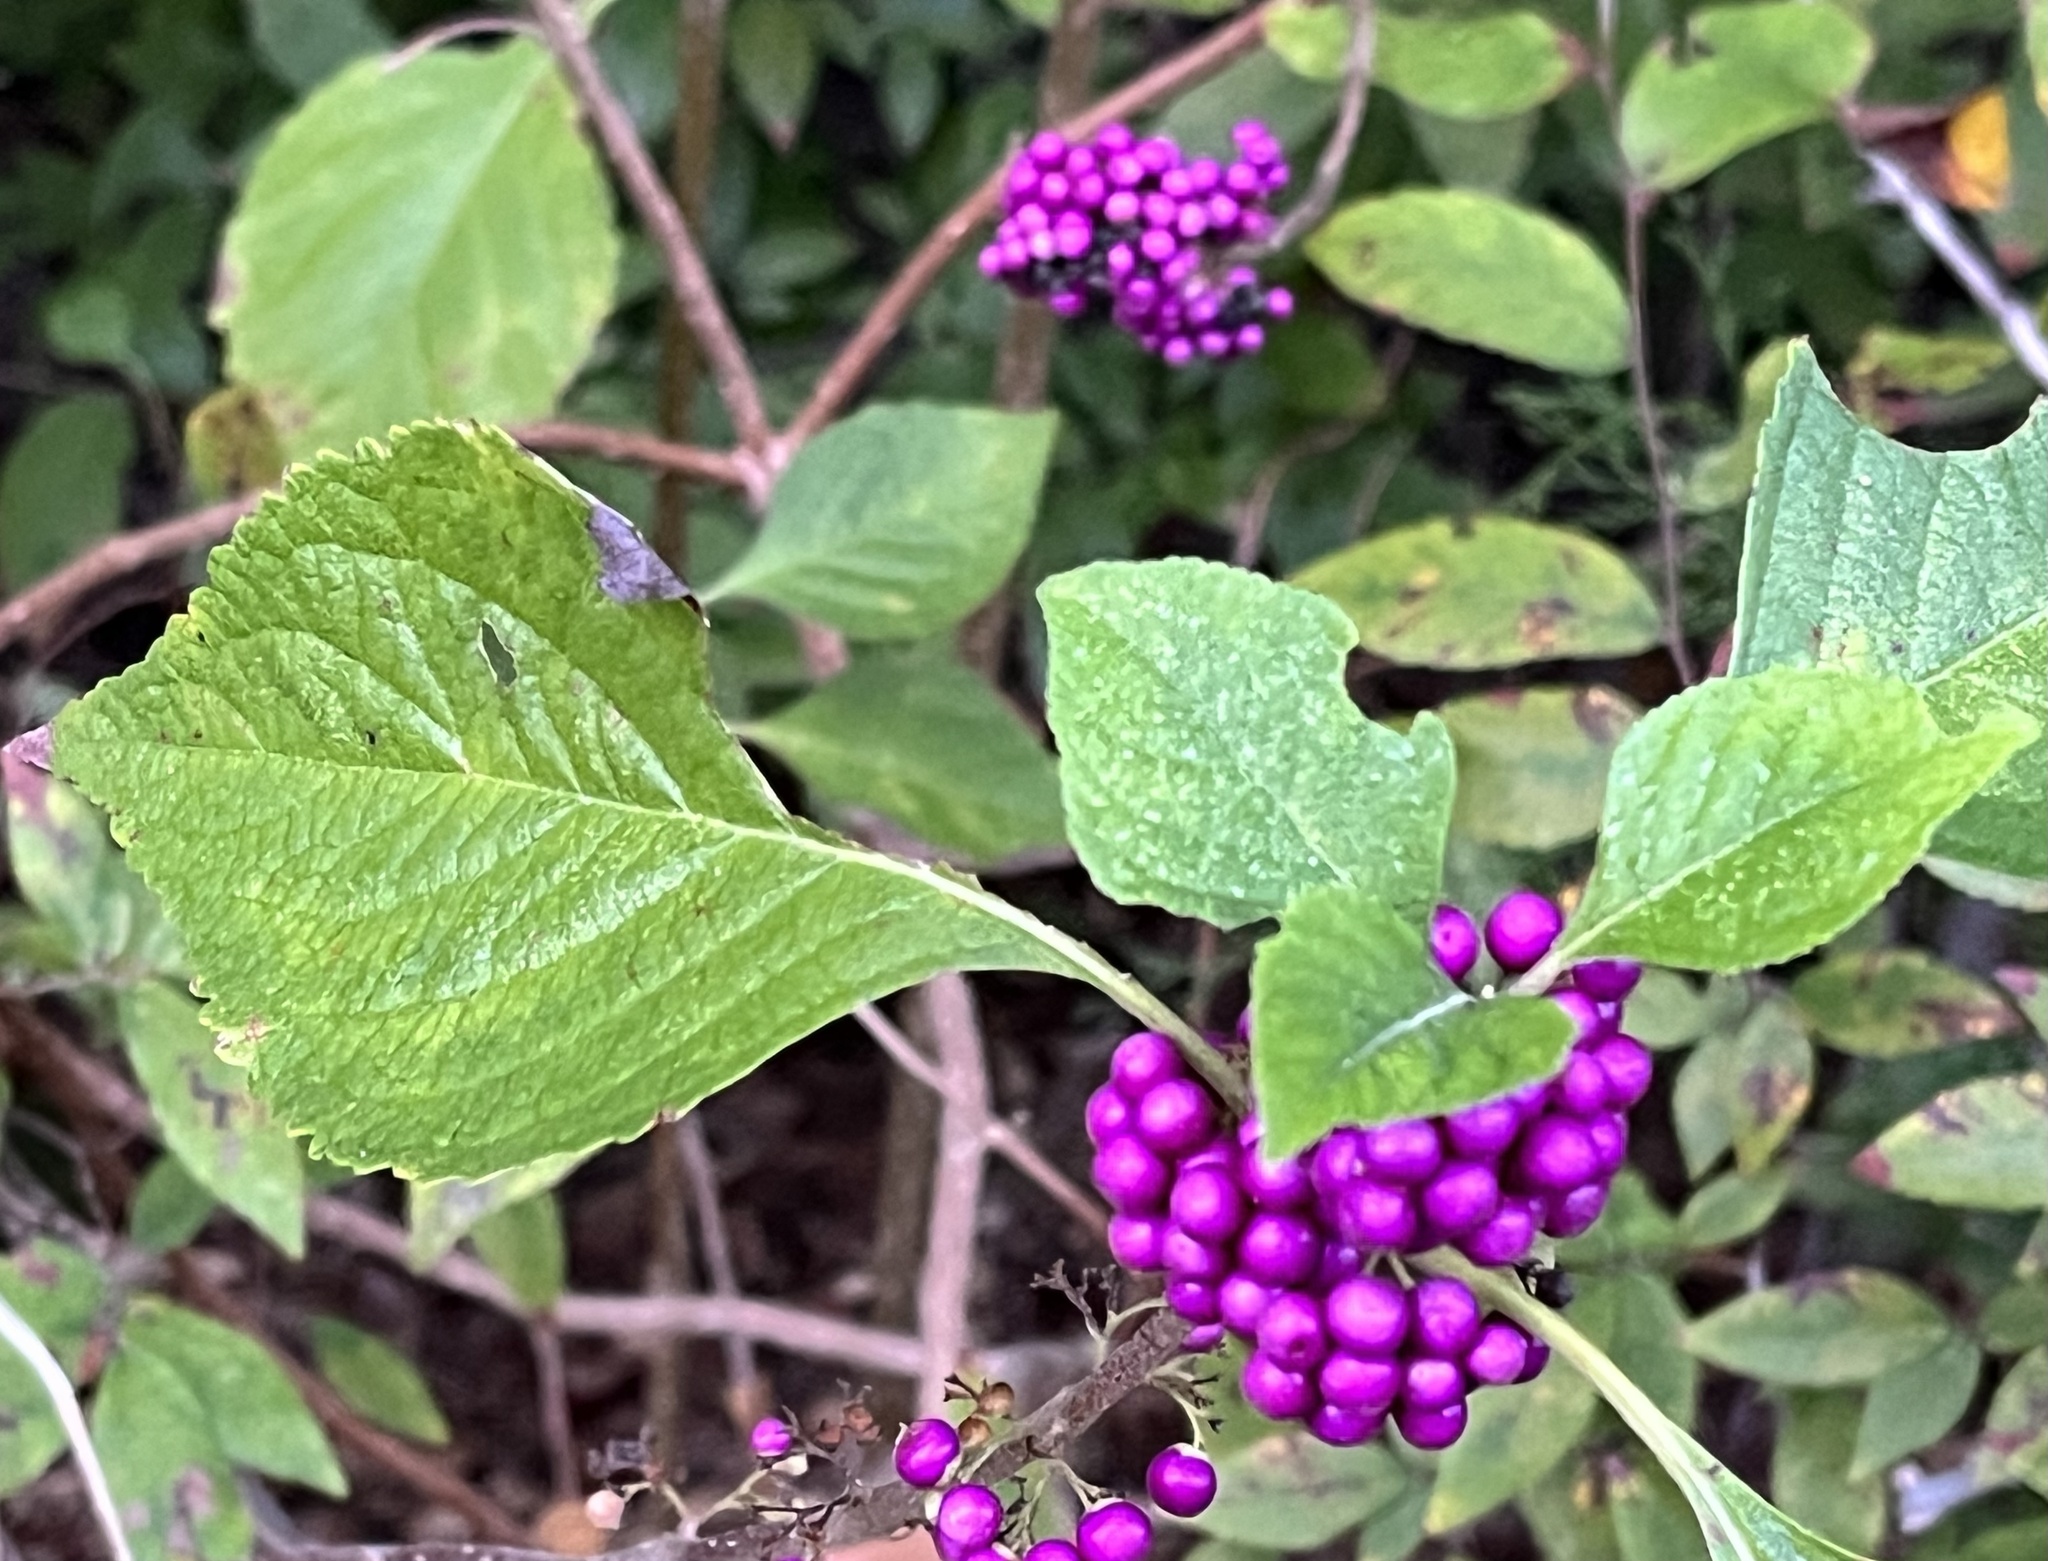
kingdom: Plantae
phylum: Tracheophyta
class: Magnoliopsida
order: Lamiales
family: Lamiaceae
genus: Callicarpa
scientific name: Callicarpa americana
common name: American beautyberry
